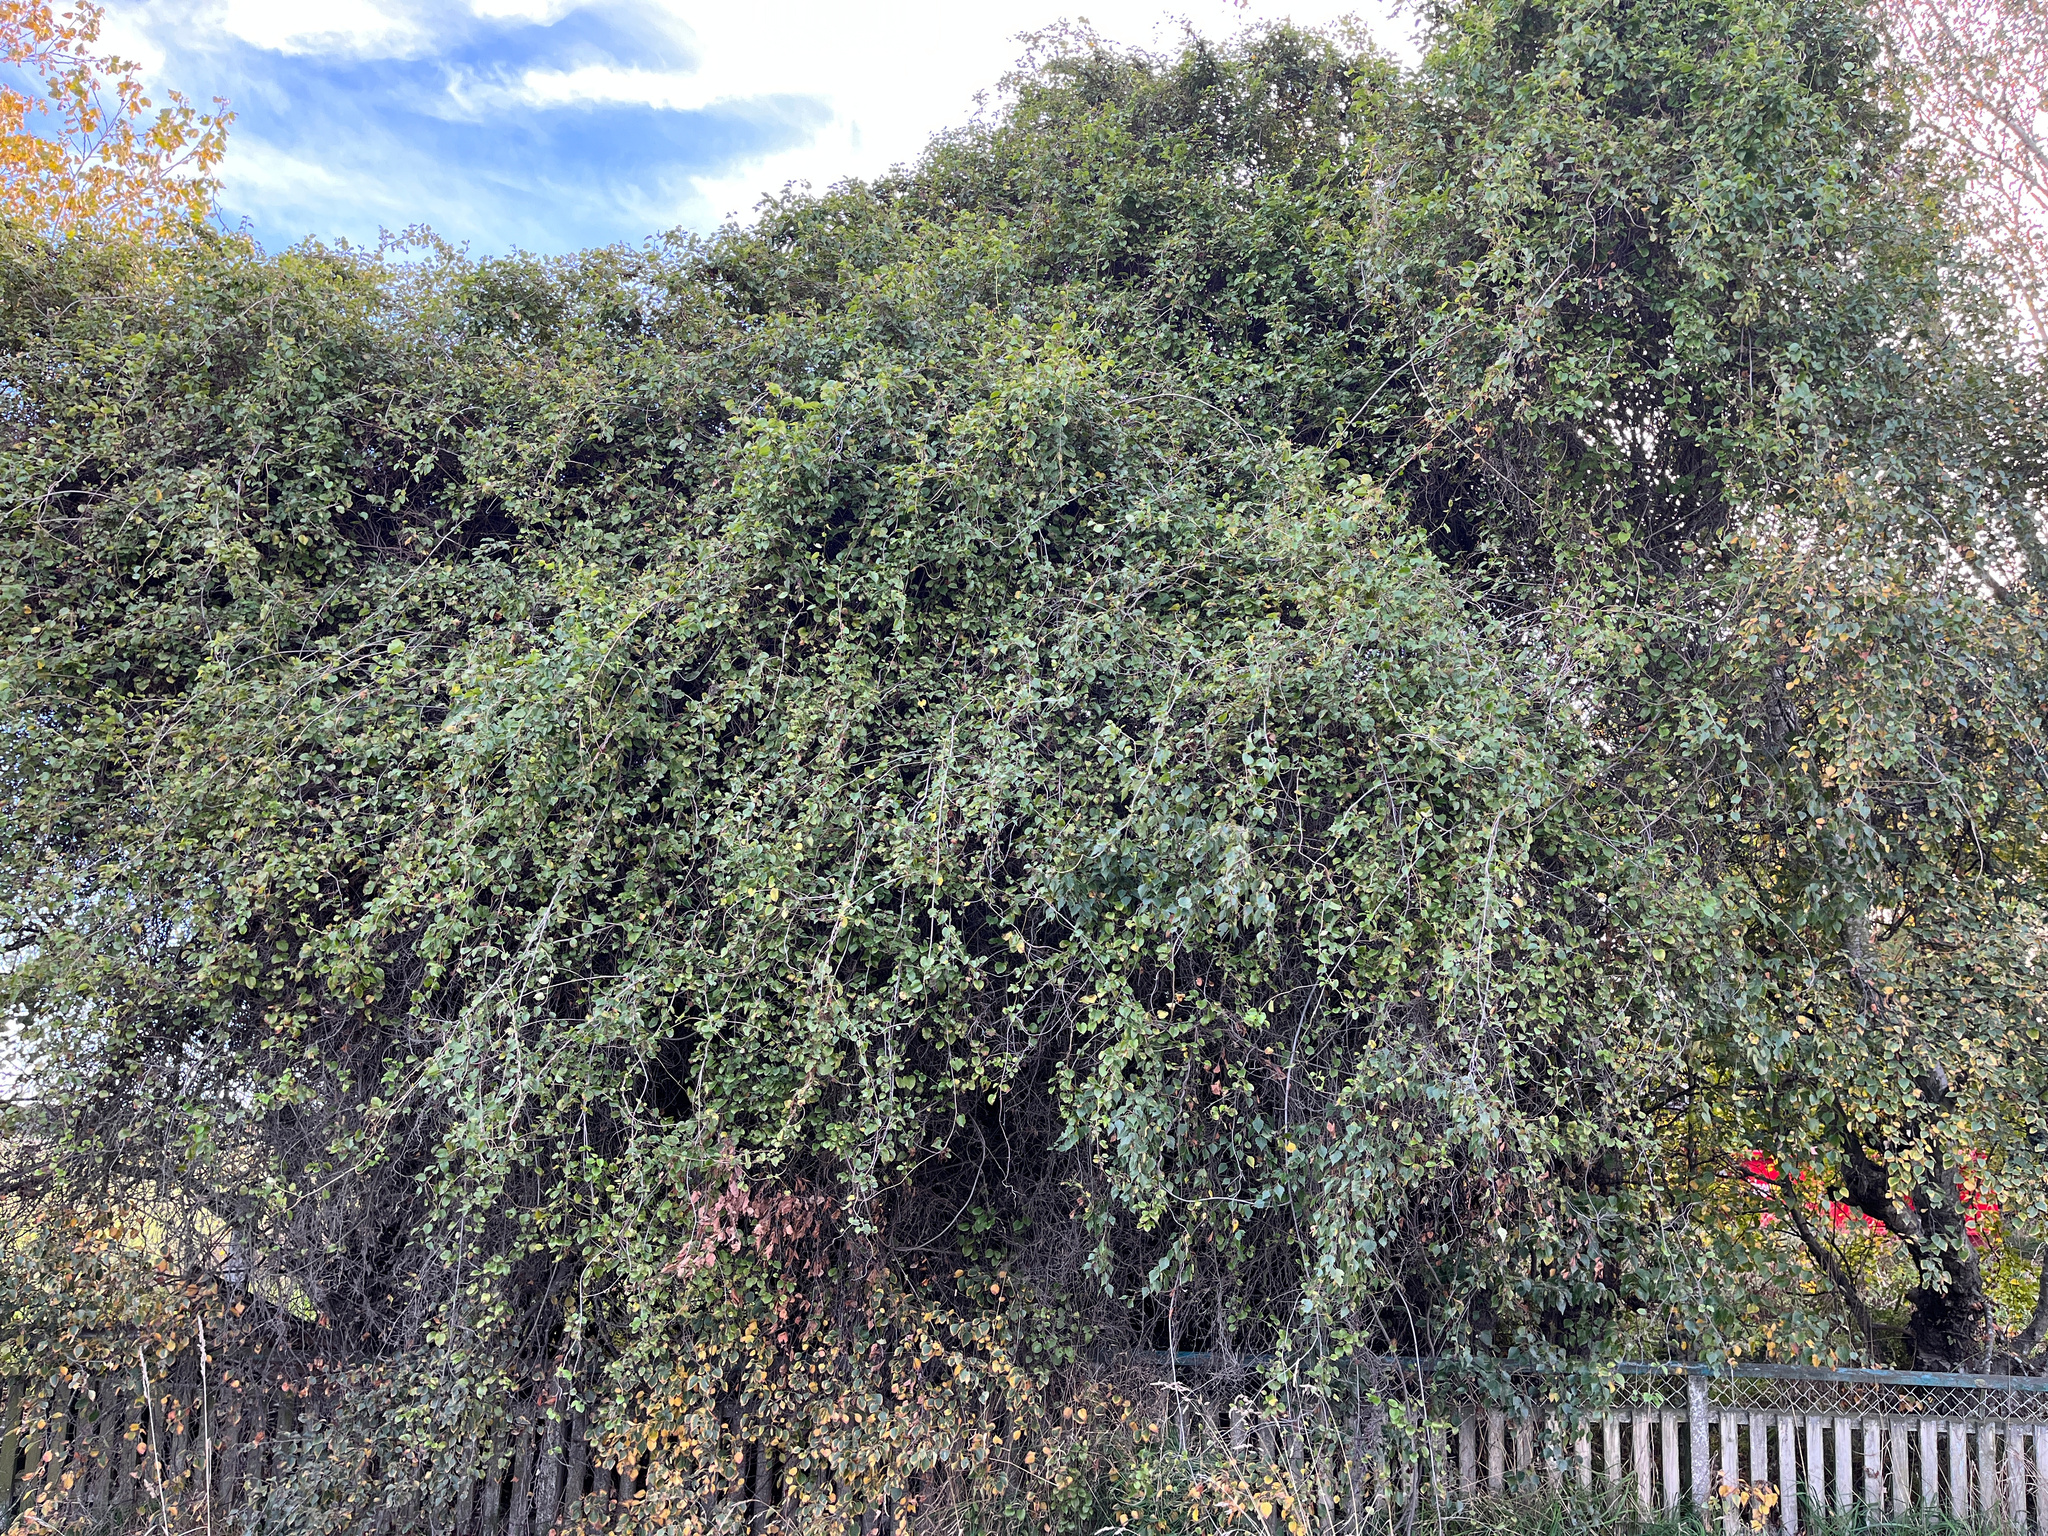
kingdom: Plantae
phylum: Tracheophyta
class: Magnoliopsida
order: Caryophyllales
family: Polygonaceae
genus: Muehlenbeckia
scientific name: Muehlenbeckia australis
